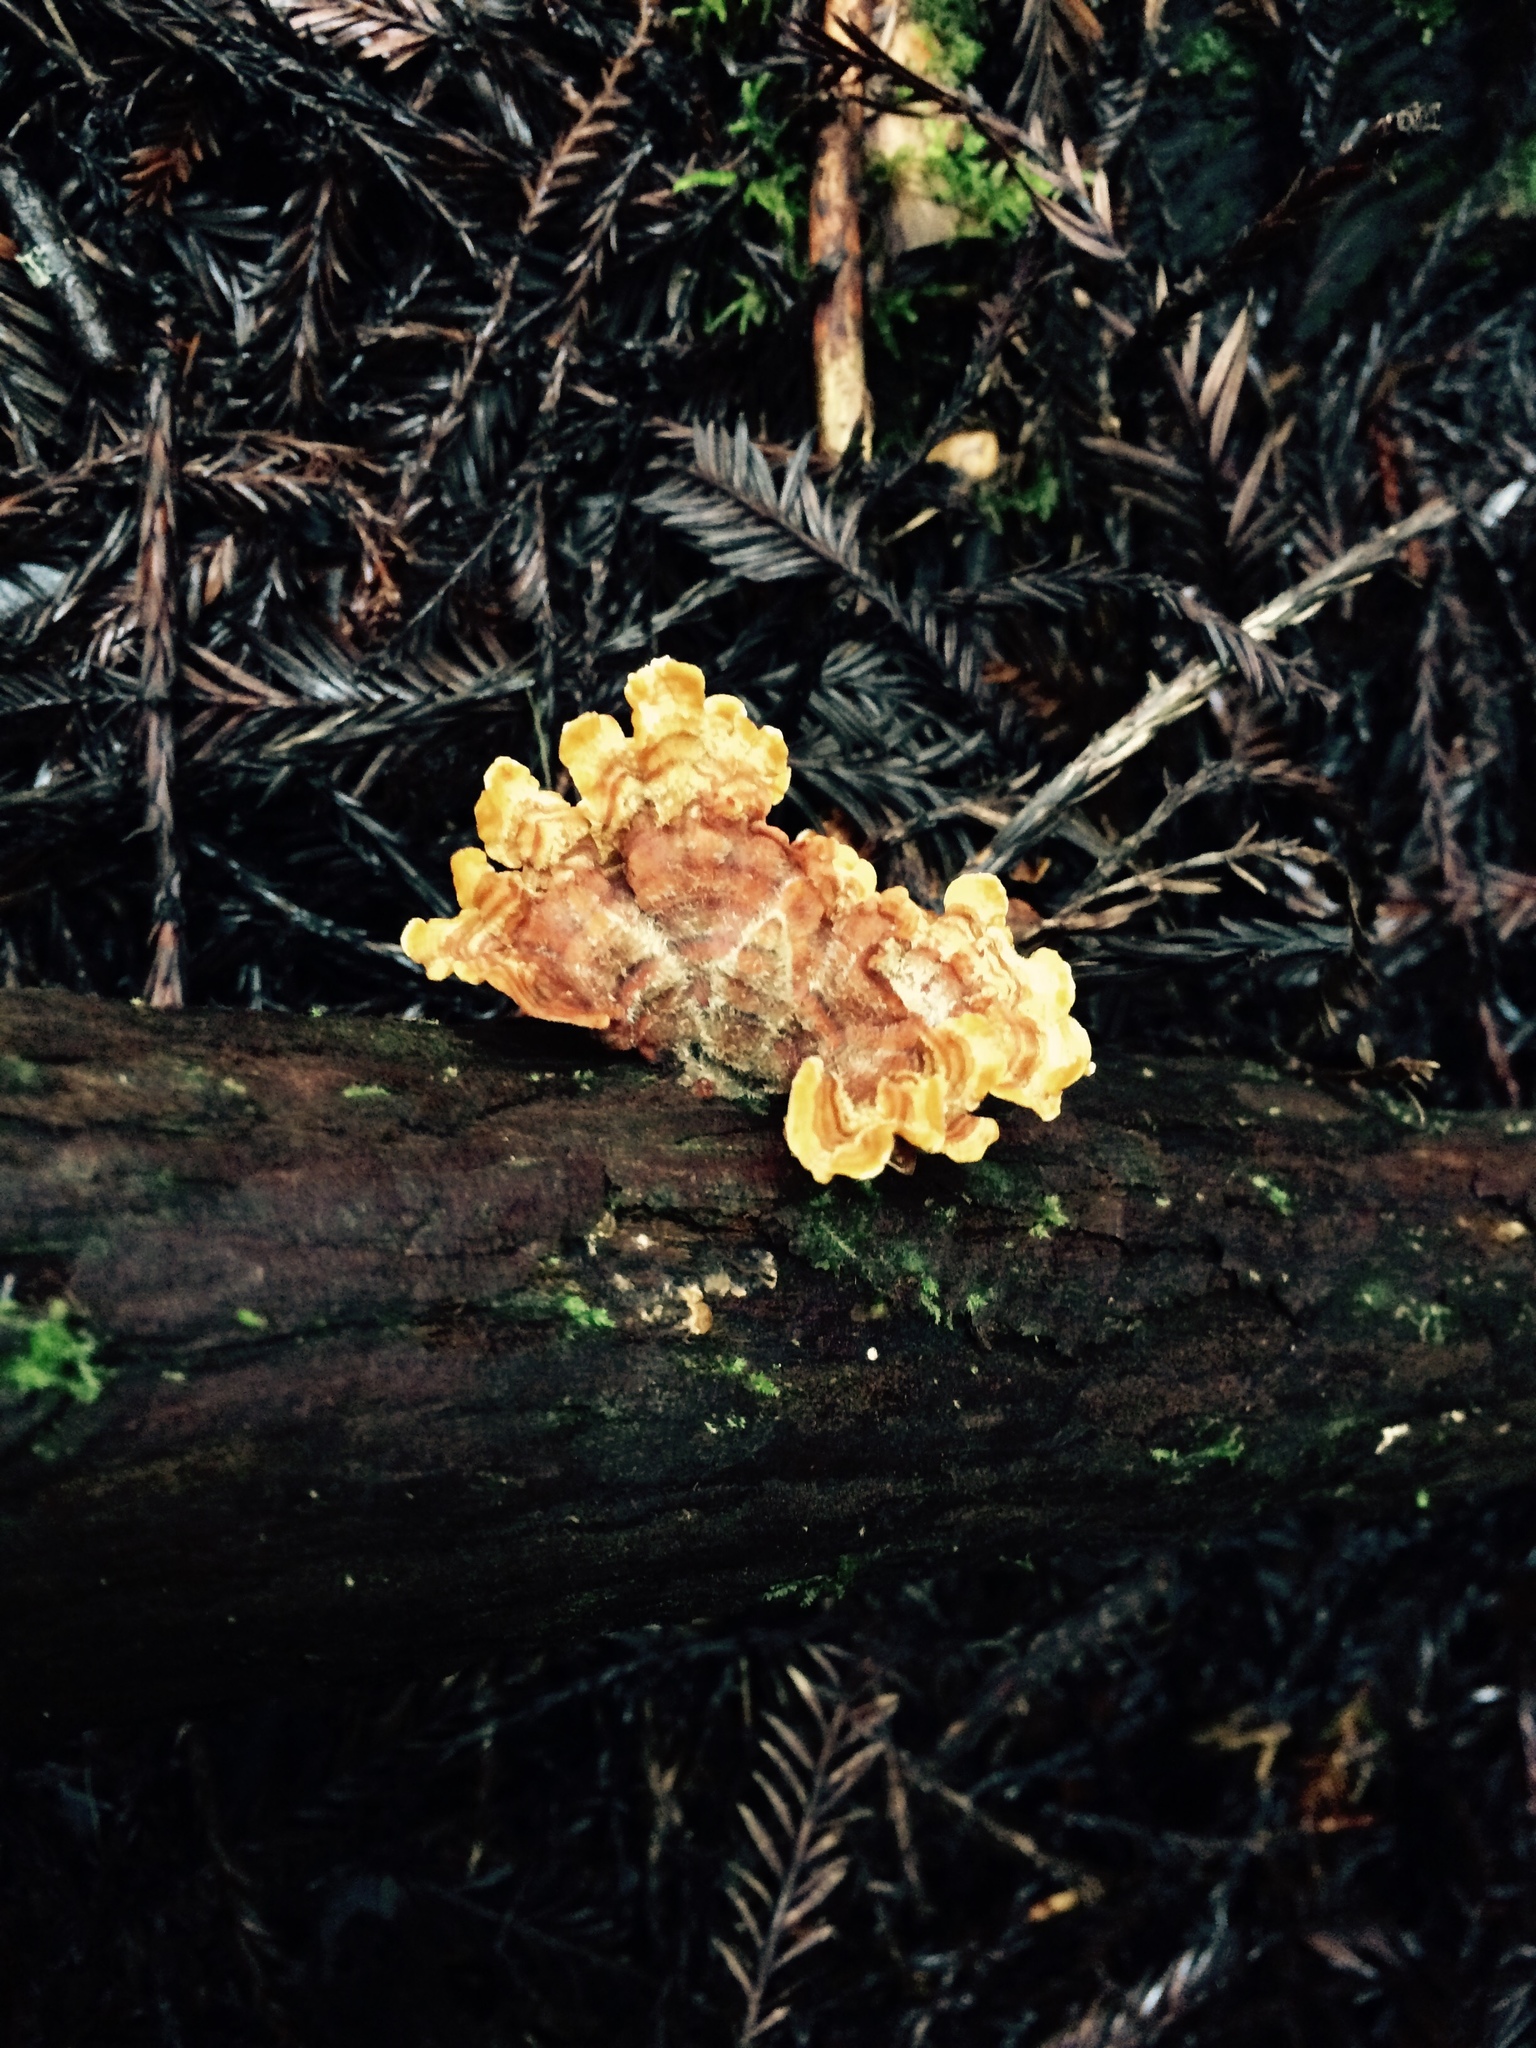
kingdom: Fungi
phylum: Basidiomycota
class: Agaricomycetes
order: Russulales
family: Stereaceae
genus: Stereum
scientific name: Stereum hirsutum
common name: Hairy curtain crust
